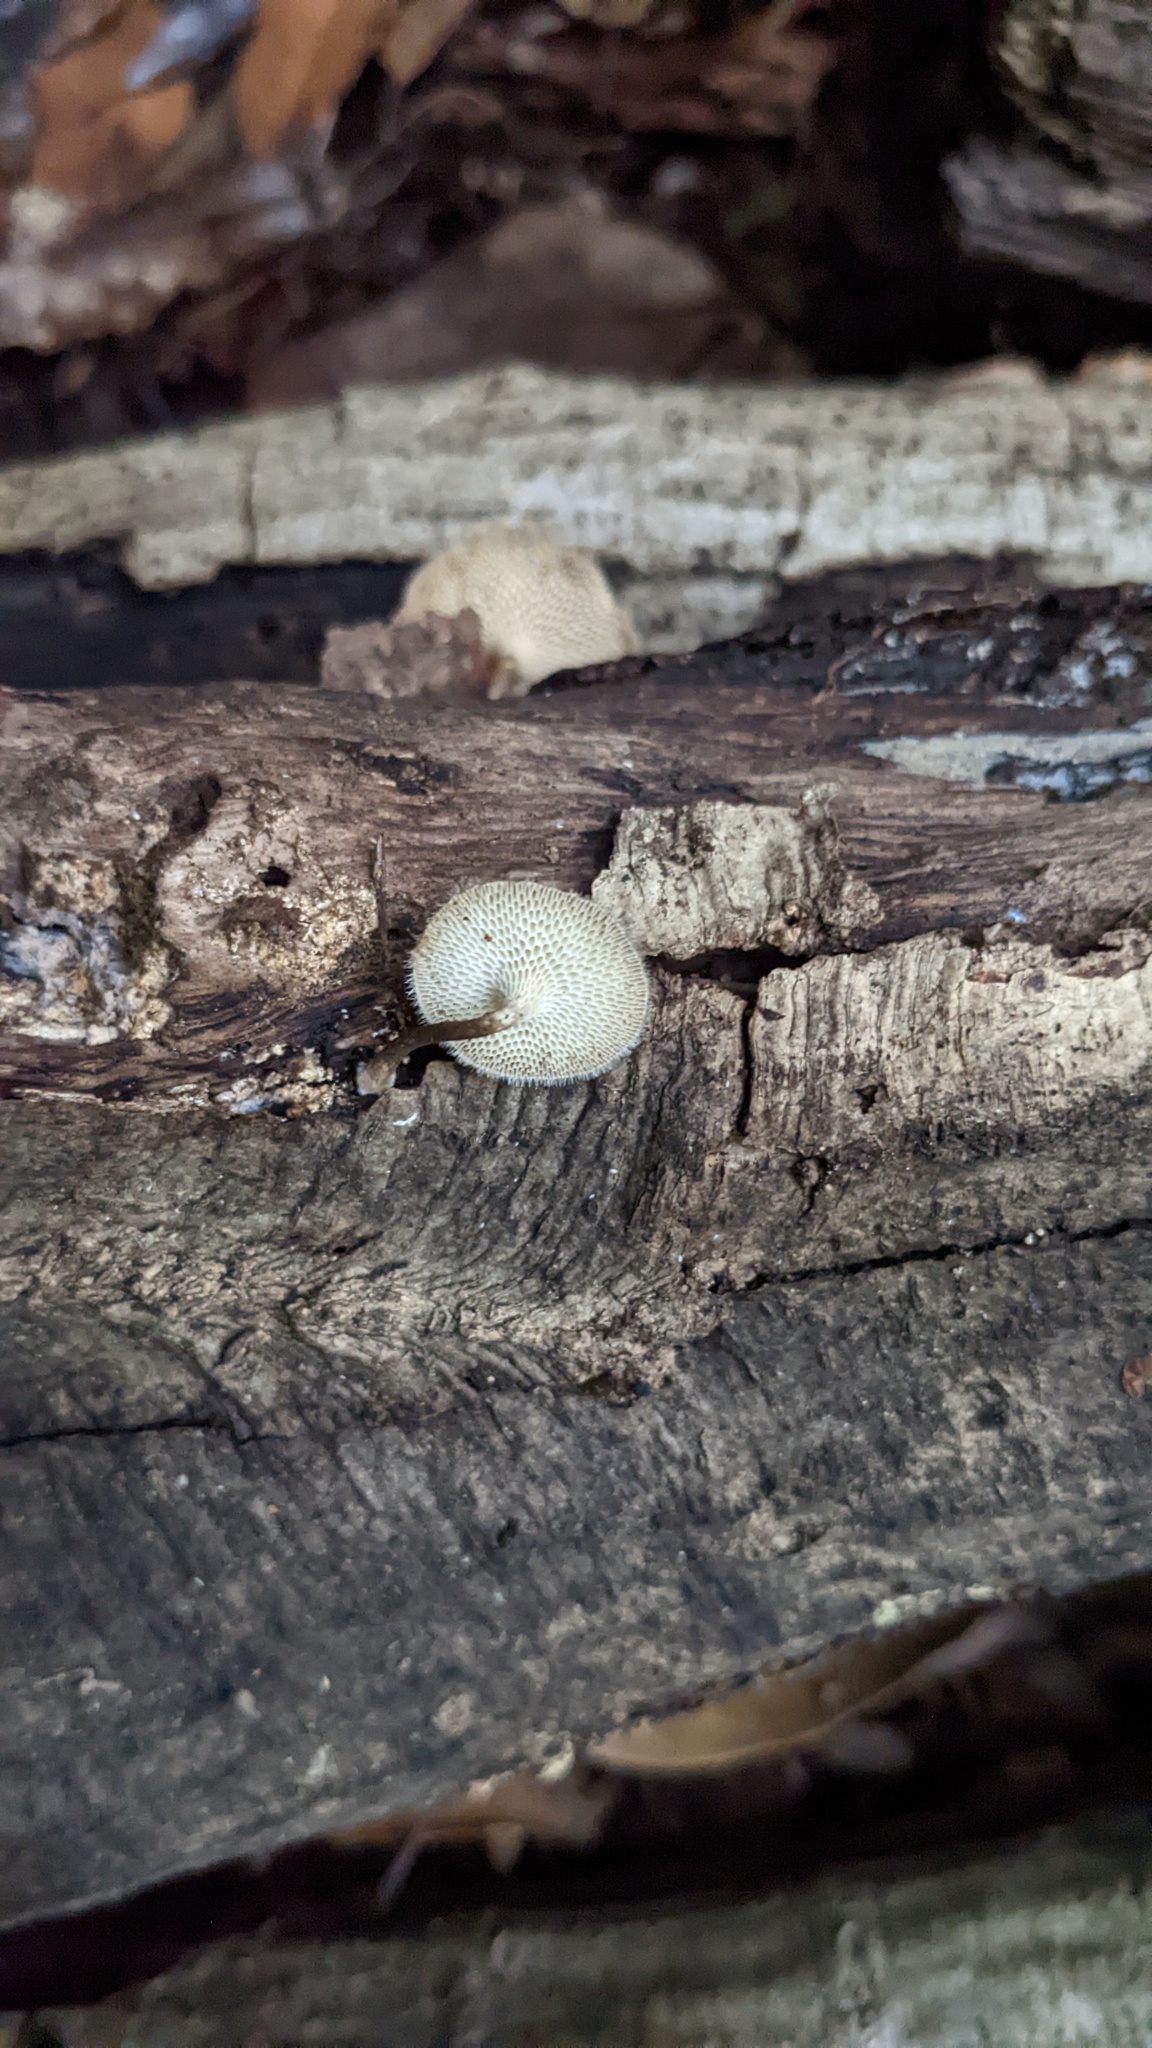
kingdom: Fungi
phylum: Basidiomycota
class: Agaricomycetes
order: Polyporales
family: Polyporaceae
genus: Lentinus
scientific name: Lentinus arcularius
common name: Spring polypore
